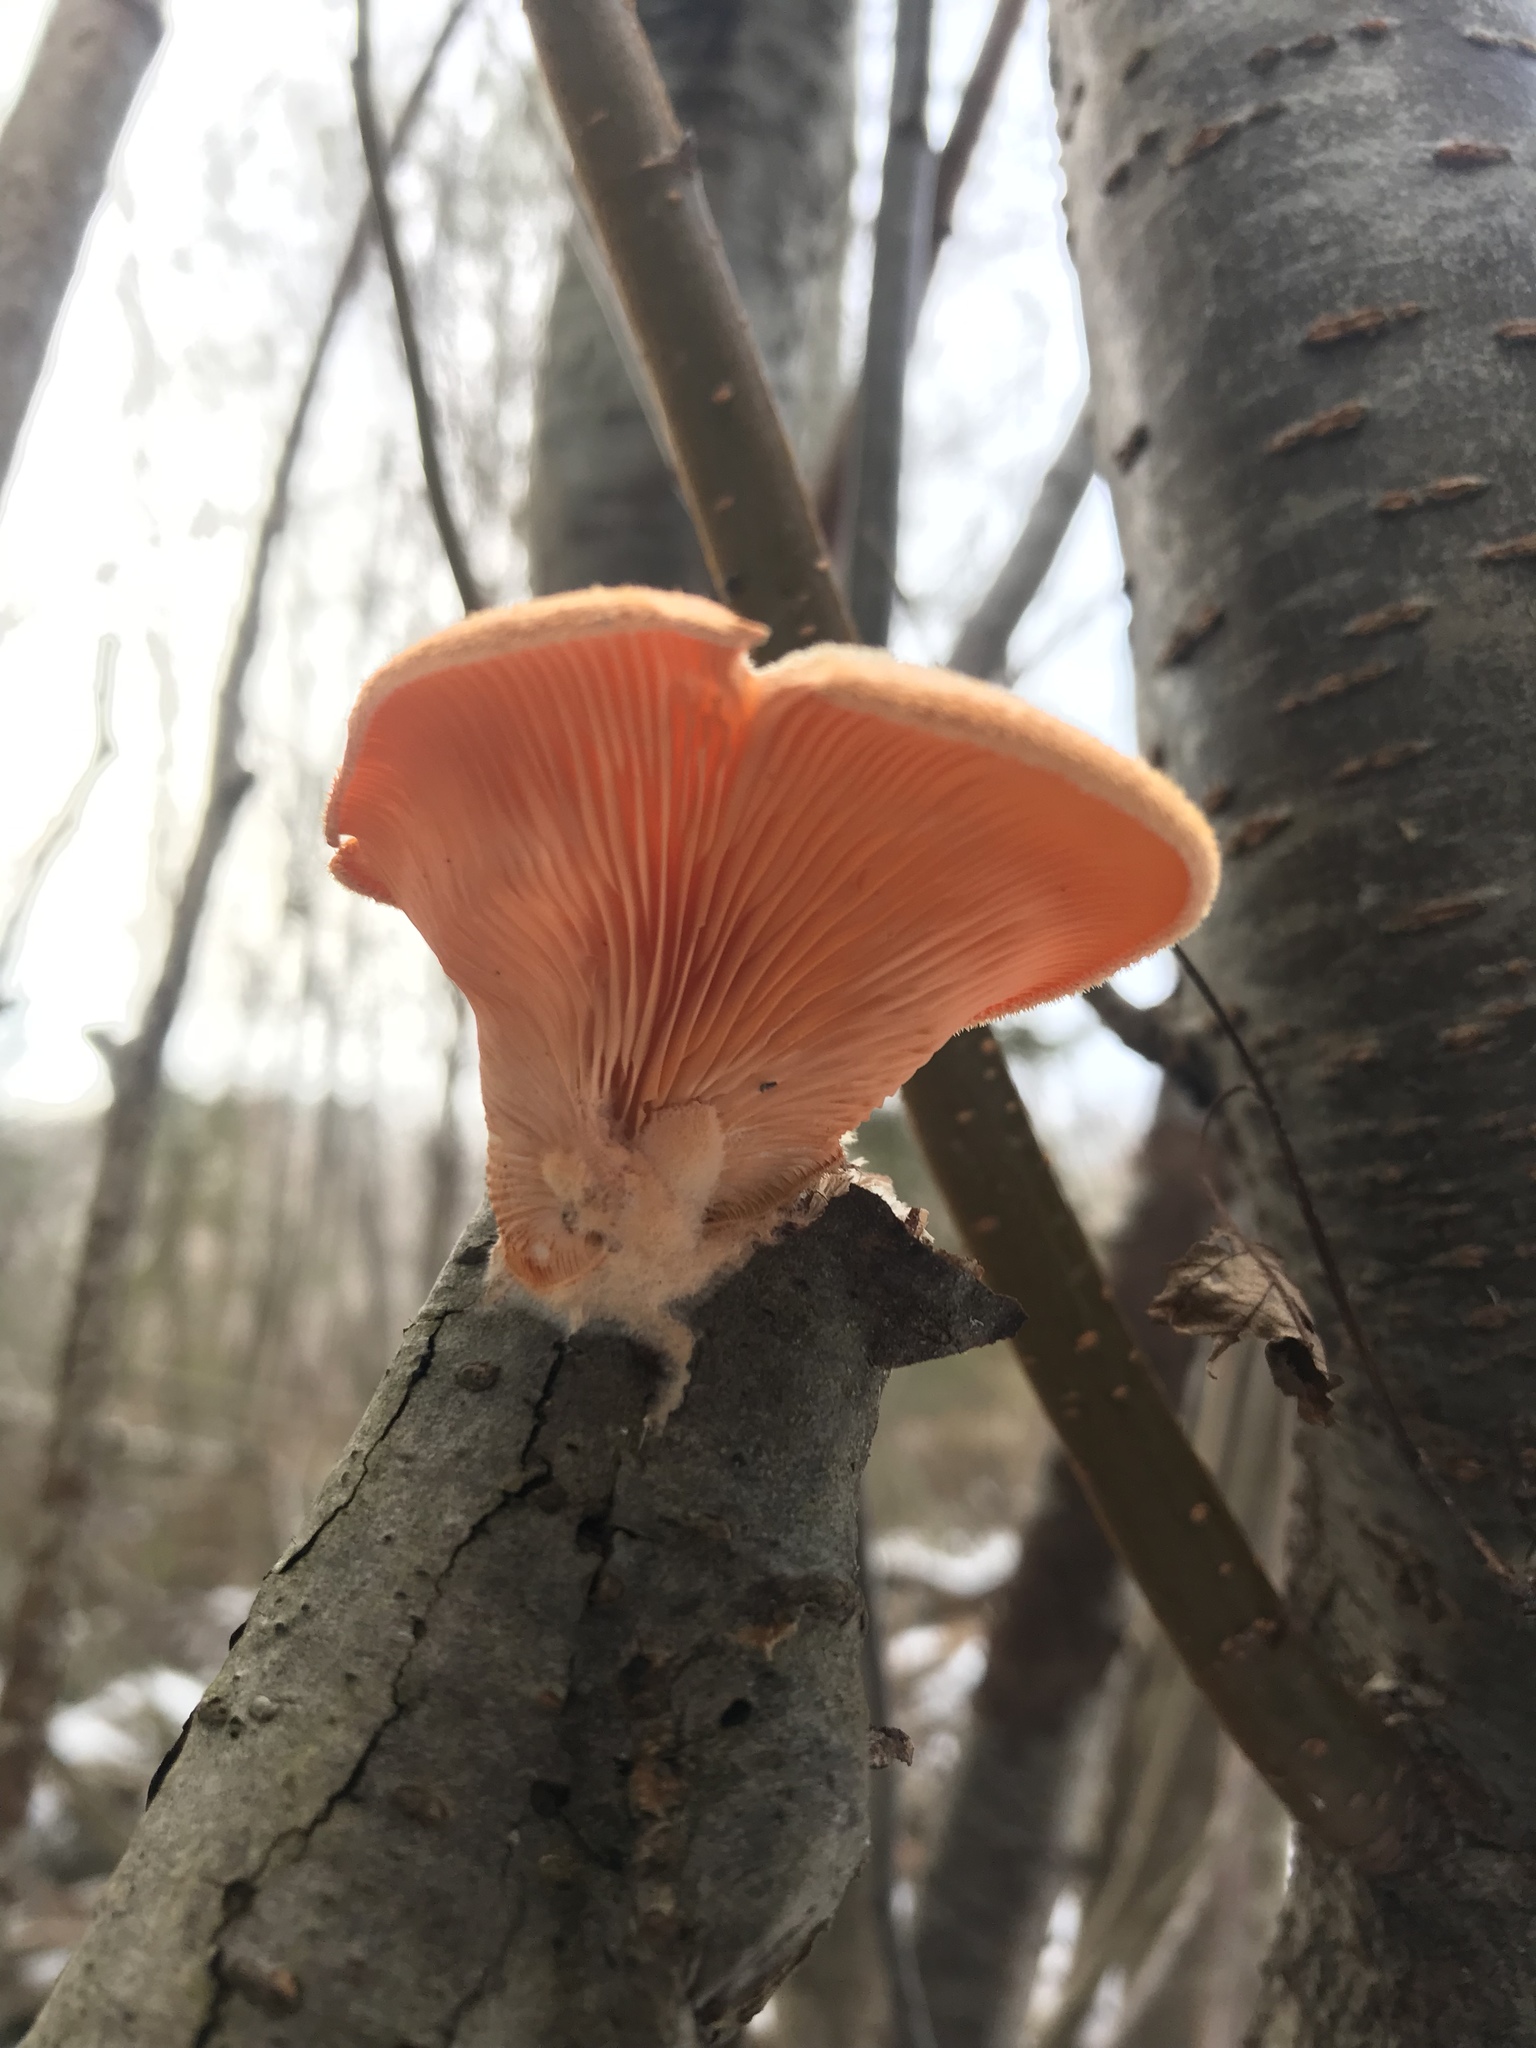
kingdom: Fungi
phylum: Basidiomycota
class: Agaricomycetes
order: Agaricales
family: Phyllotopsidaceae
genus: Phyllotopsis
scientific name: Phyllotopsis nidulans
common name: Orange mock oyster
